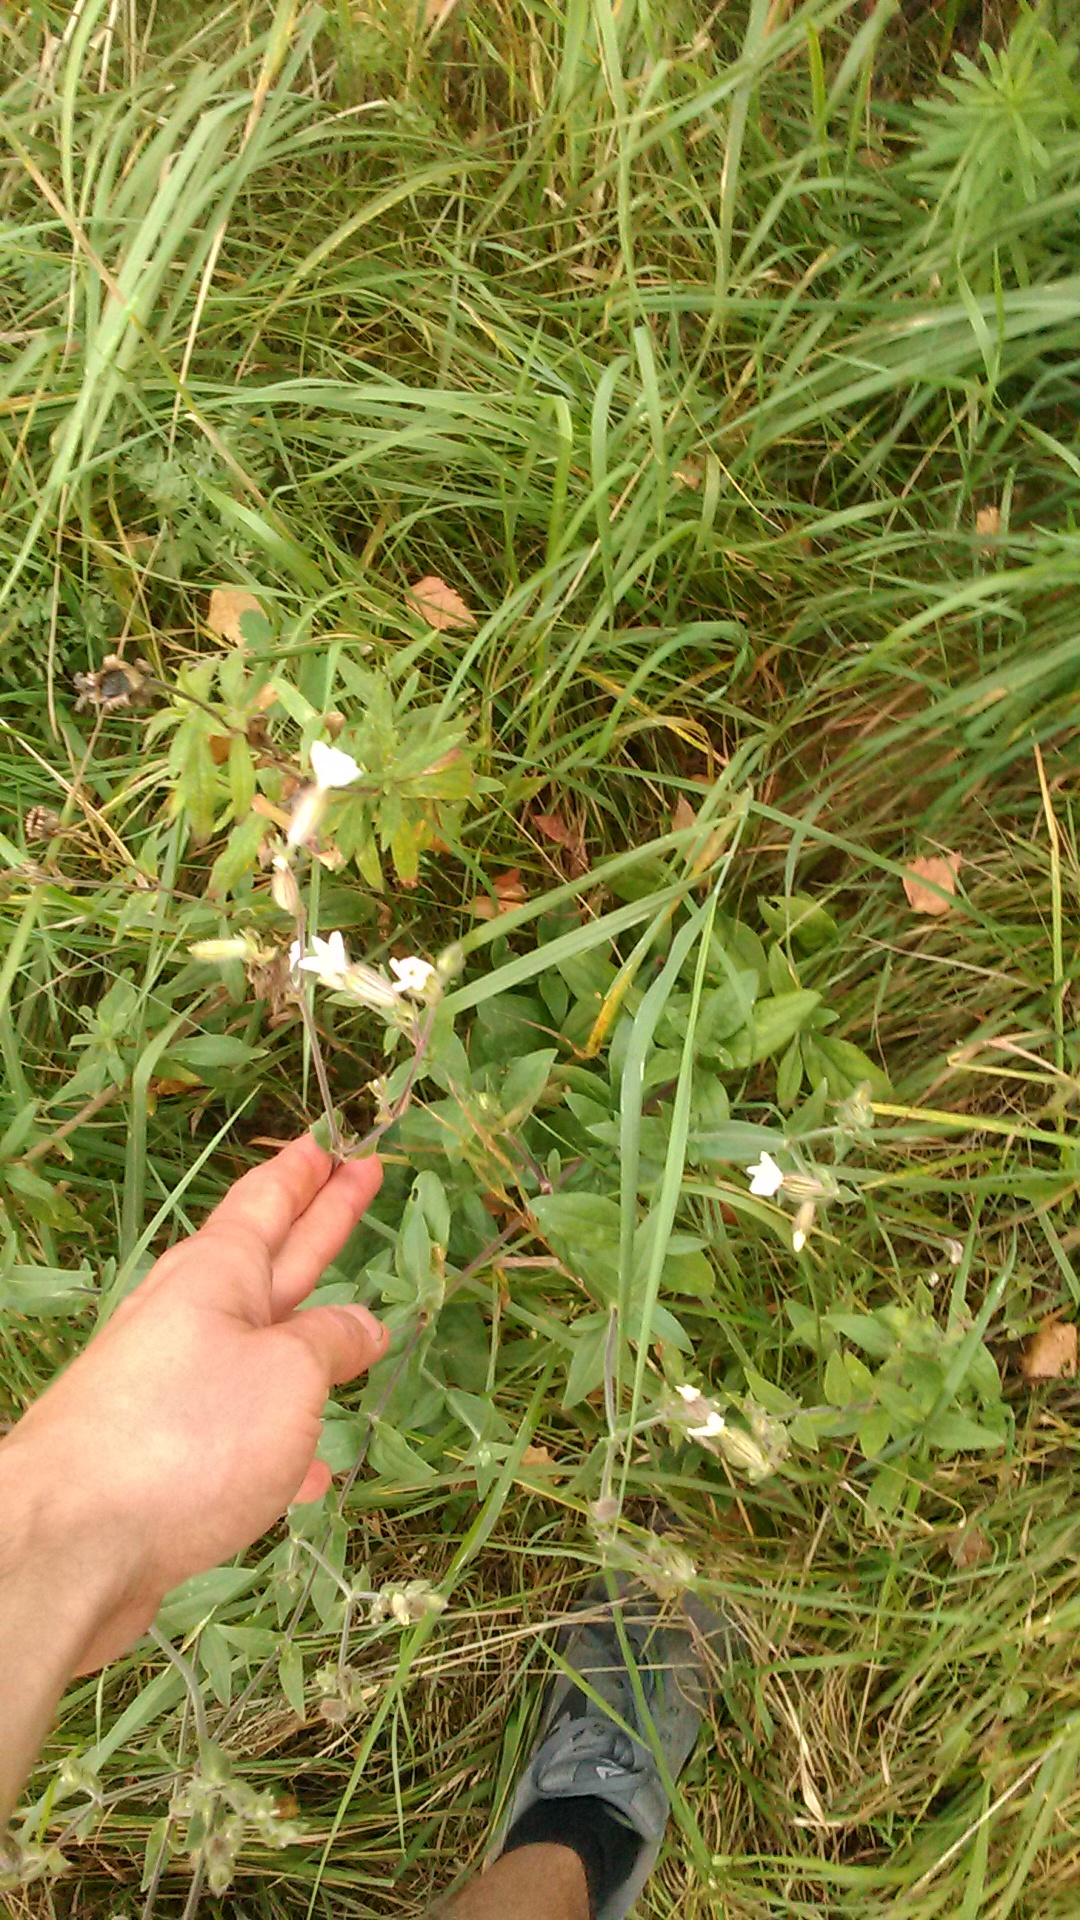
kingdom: Plantae
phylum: Tracheophyta
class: Magnoliopsida
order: Caryophyllales
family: Caryophyllaceae
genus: Silene
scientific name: Silene latifolia
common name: White campion
